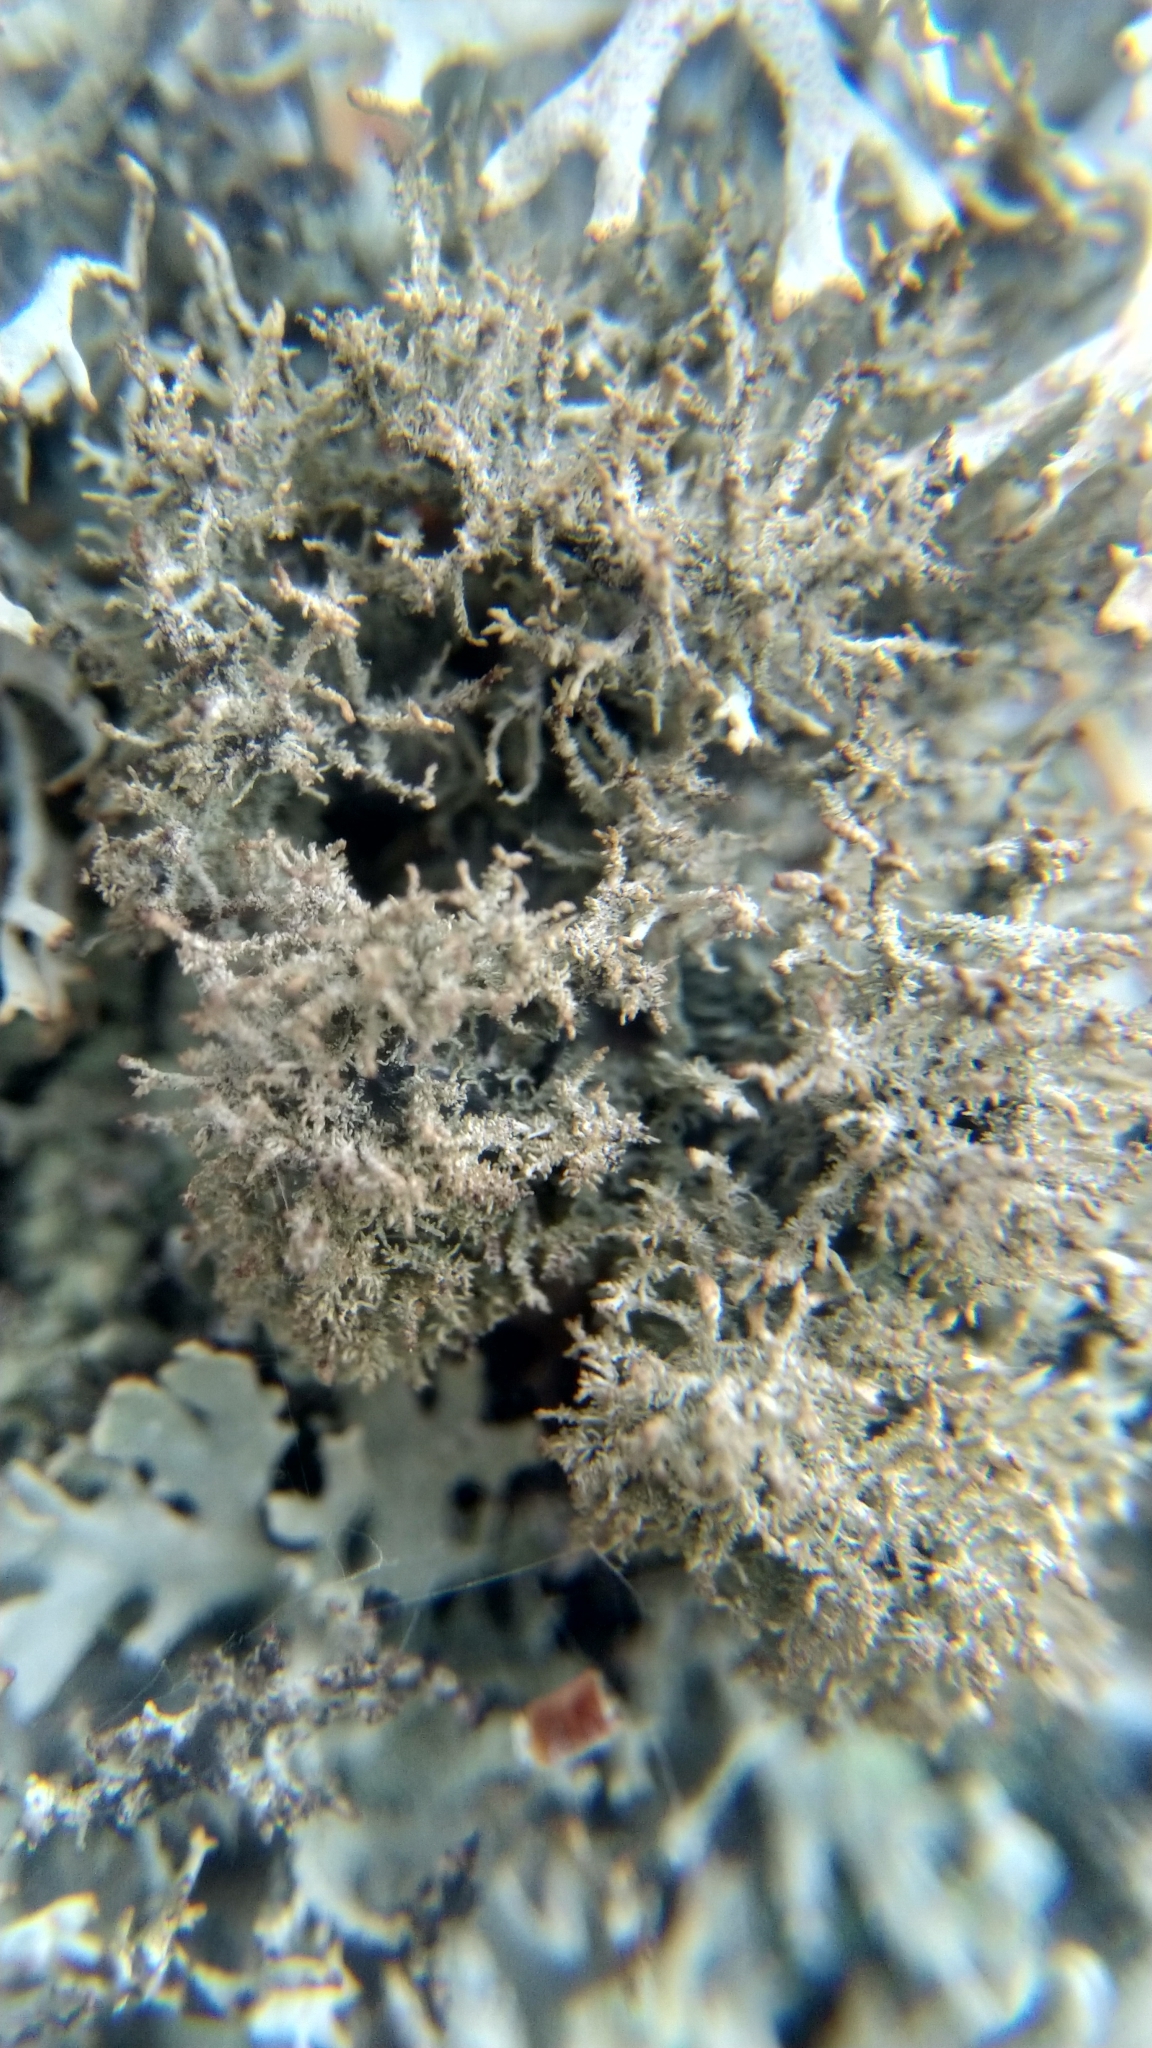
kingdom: Fungi
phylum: Ascomycota
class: Lecanoromycetes
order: Lecanorales
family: Parmeliaceae
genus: Pseudevernia
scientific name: Pseudevernia furfuracea
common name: Tree moss
